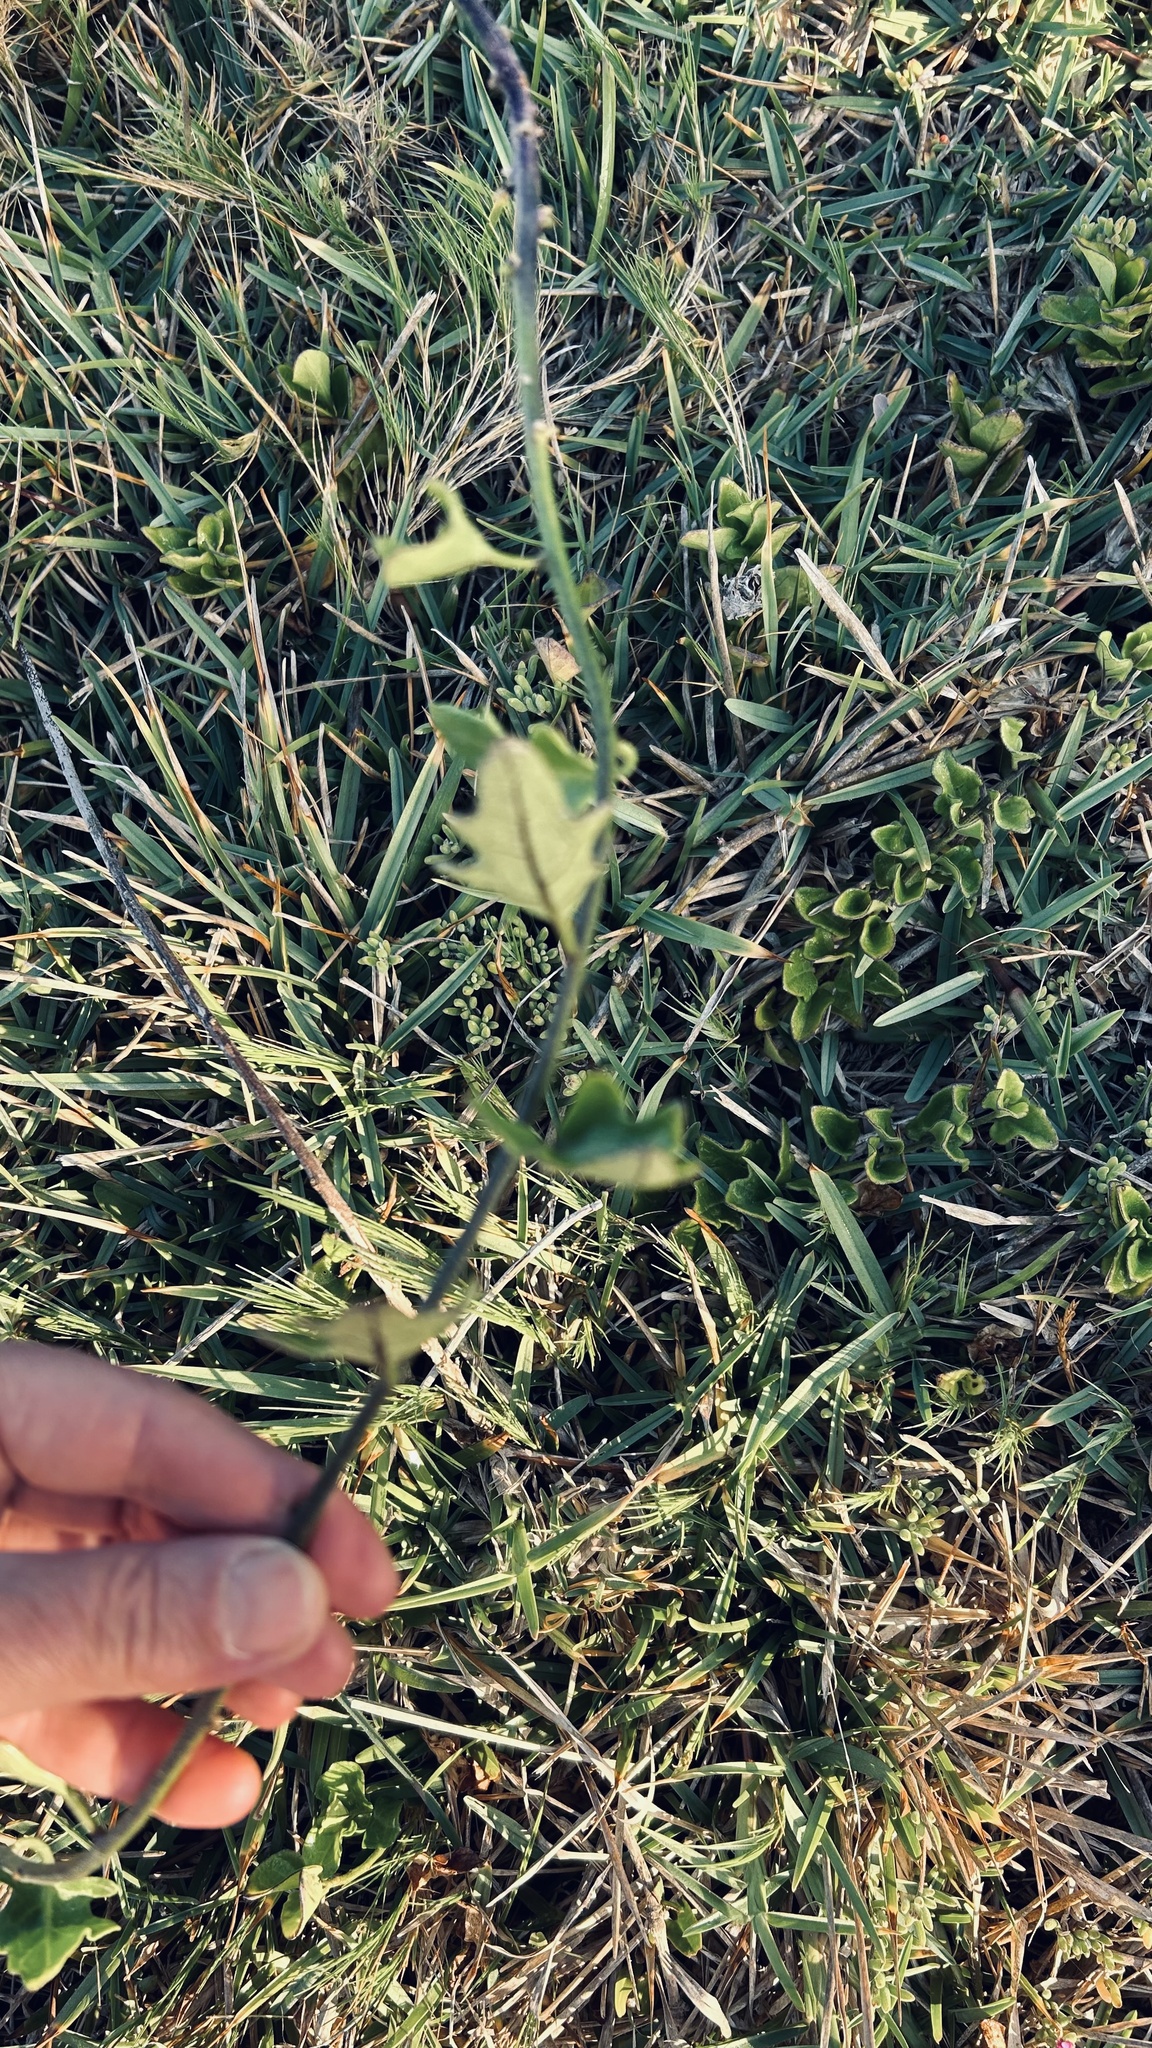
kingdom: Plantae
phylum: Tracheophyta
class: Magnoliopsida
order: Solanales
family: Solanaceae
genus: Solanum
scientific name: Solanum africanum
